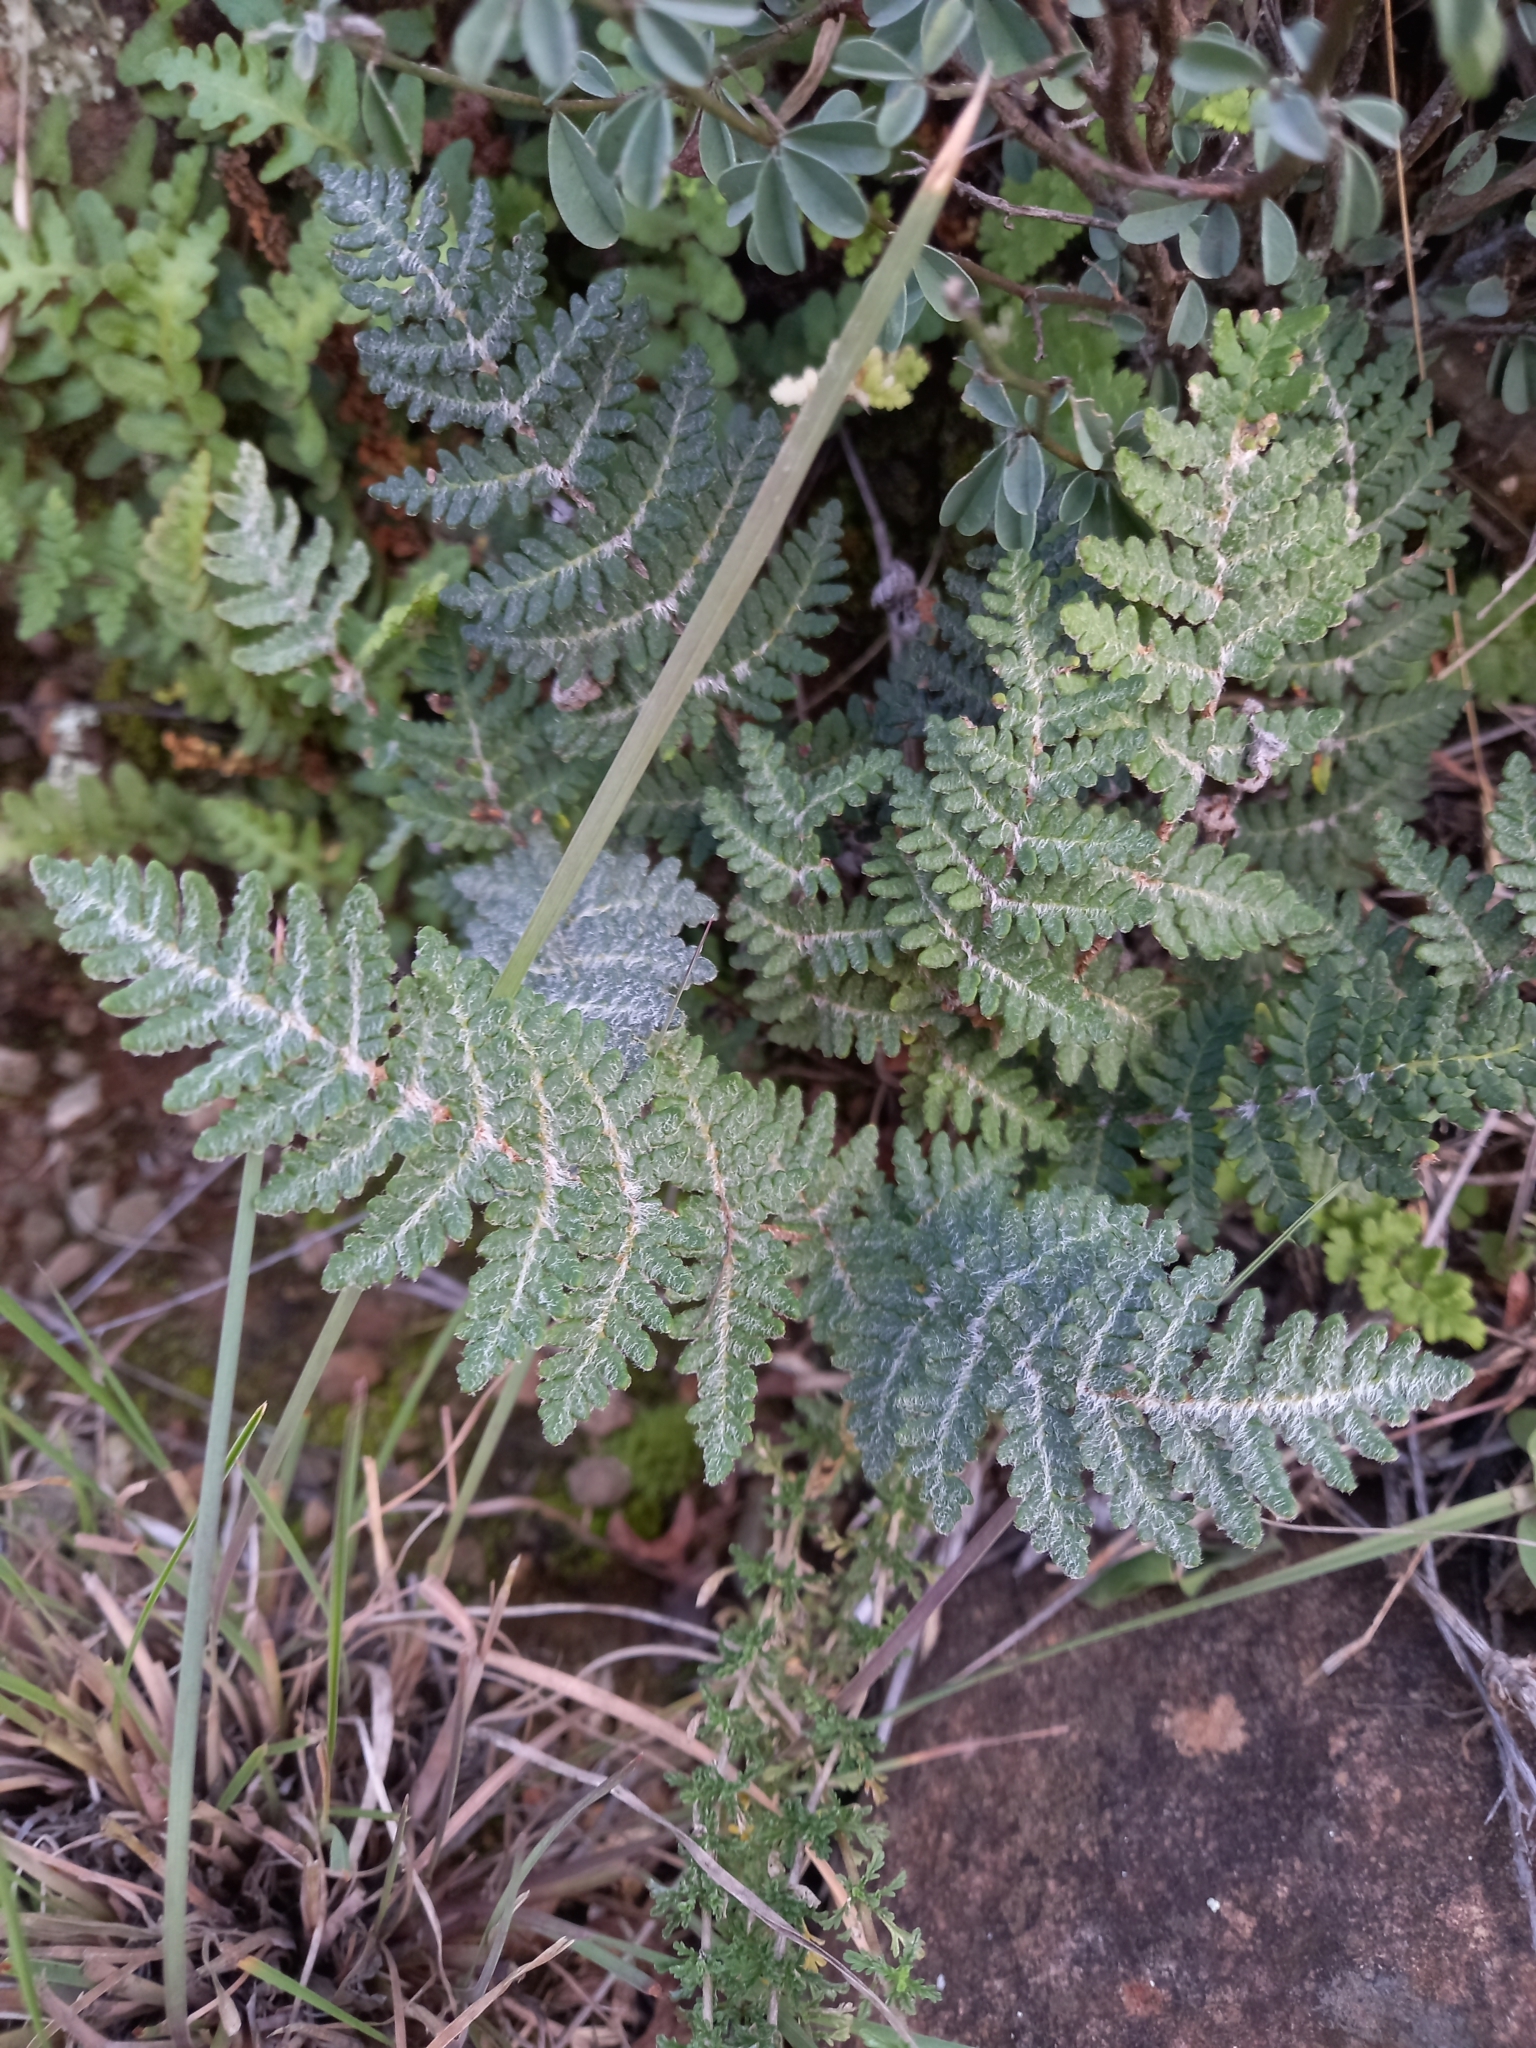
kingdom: Plantae
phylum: Tracheophyta
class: Polypodiopsida
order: Polypodiales
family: Pteridaceae
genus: Cheilanthes
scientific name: Cheilanthes eckloniana
